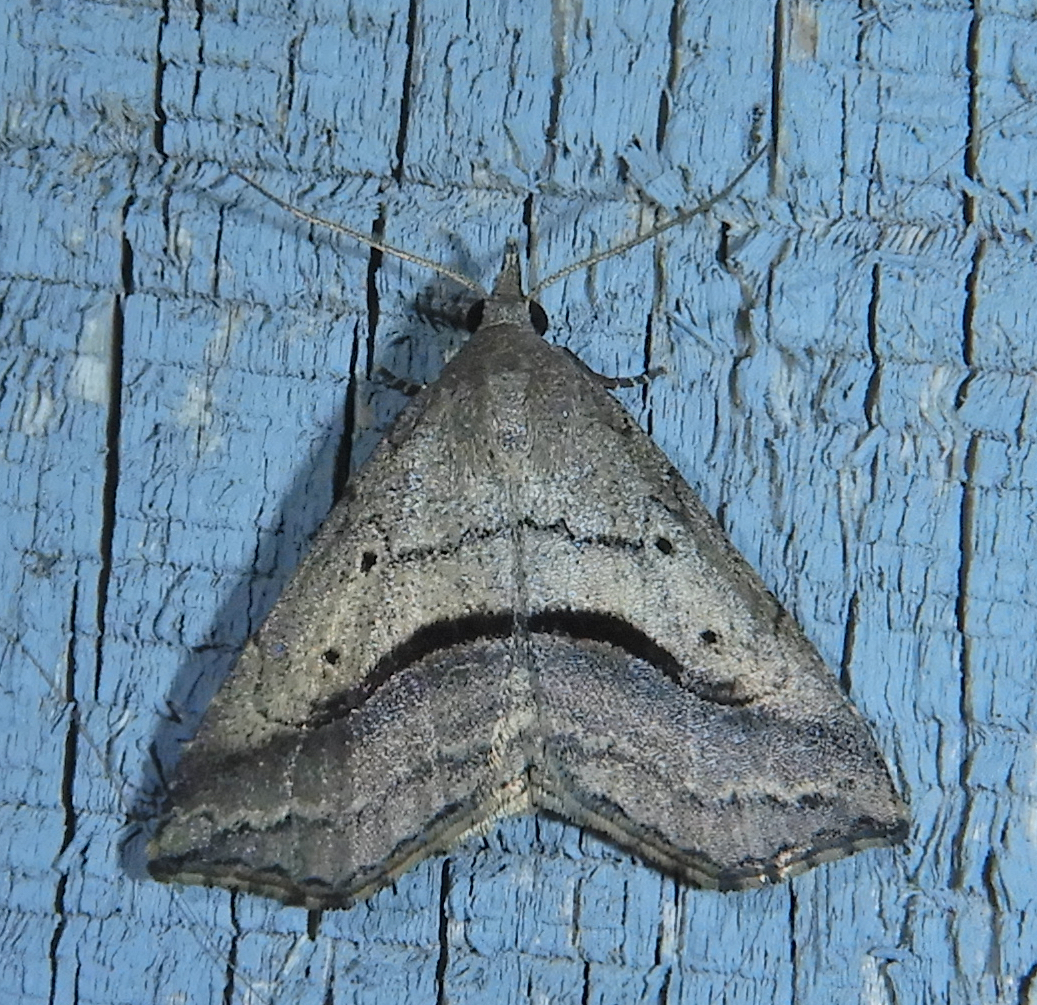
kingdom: Animalia
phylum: Arthropoda
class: Insecta
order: Lepidoptera
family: Erebidae
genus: Spargaloma
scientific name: Spargaloma perditalis
